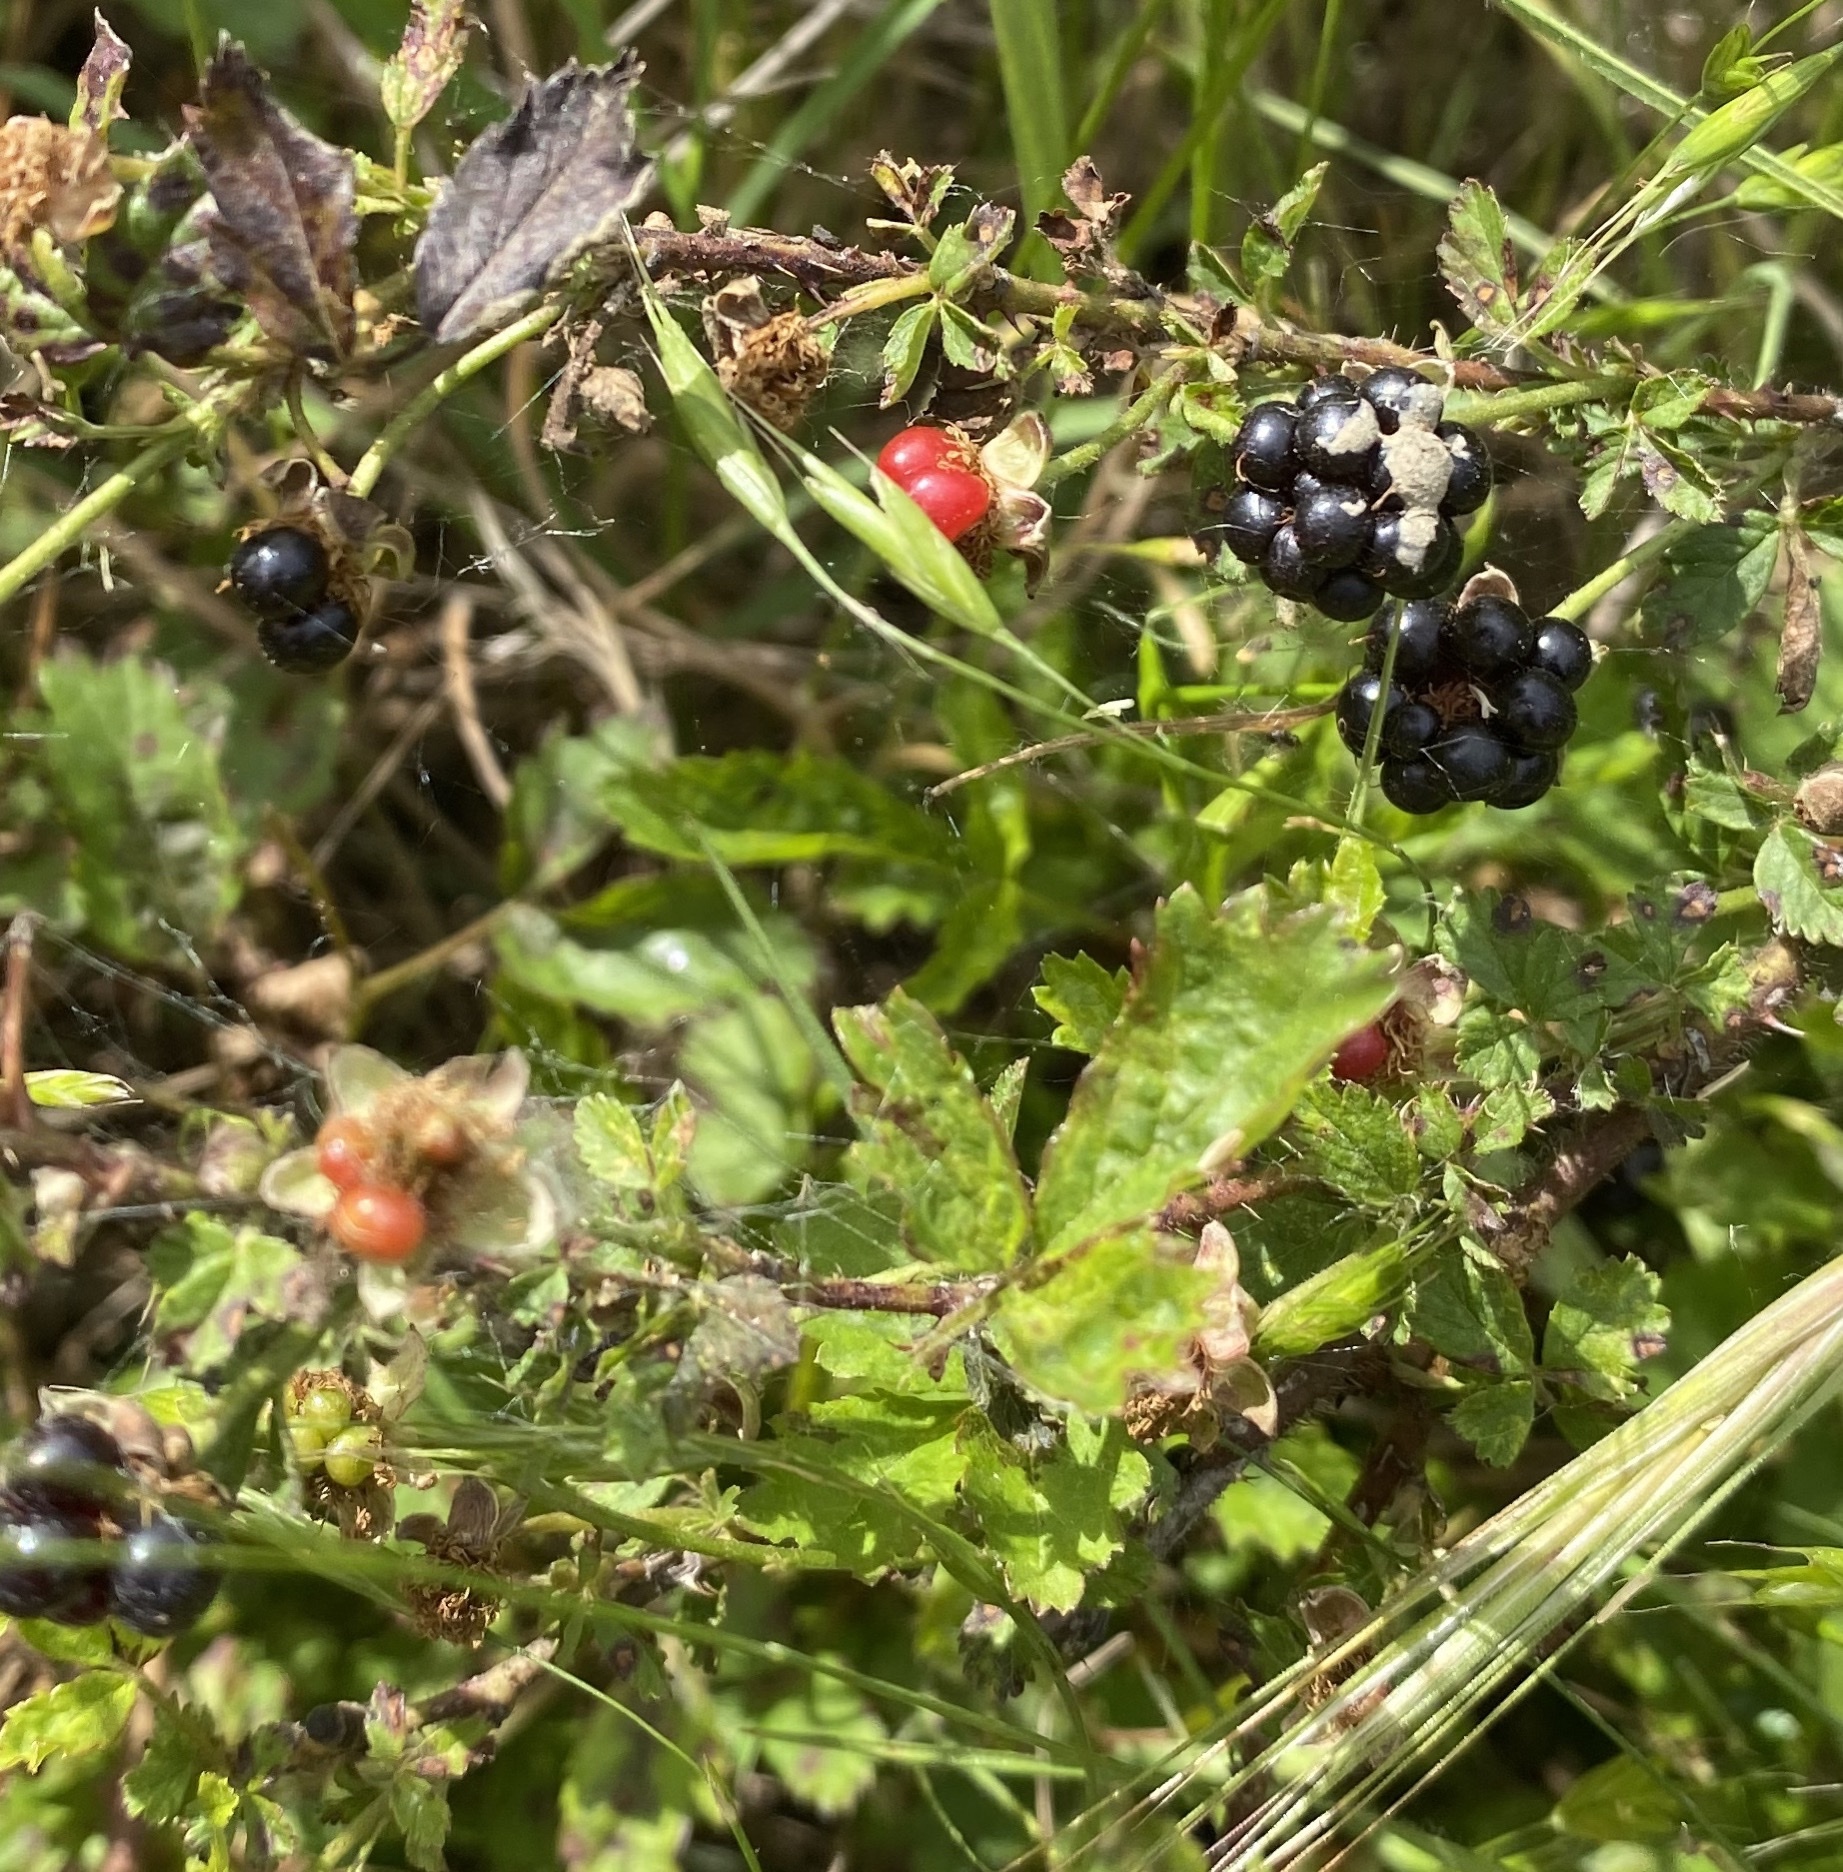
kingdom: Plantae
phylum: Tracheophyta
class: Magnoliopsida
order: Rosales
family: Rosaceae
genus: Rubus
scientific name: Rubus trivialis
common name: Southern dewberry
